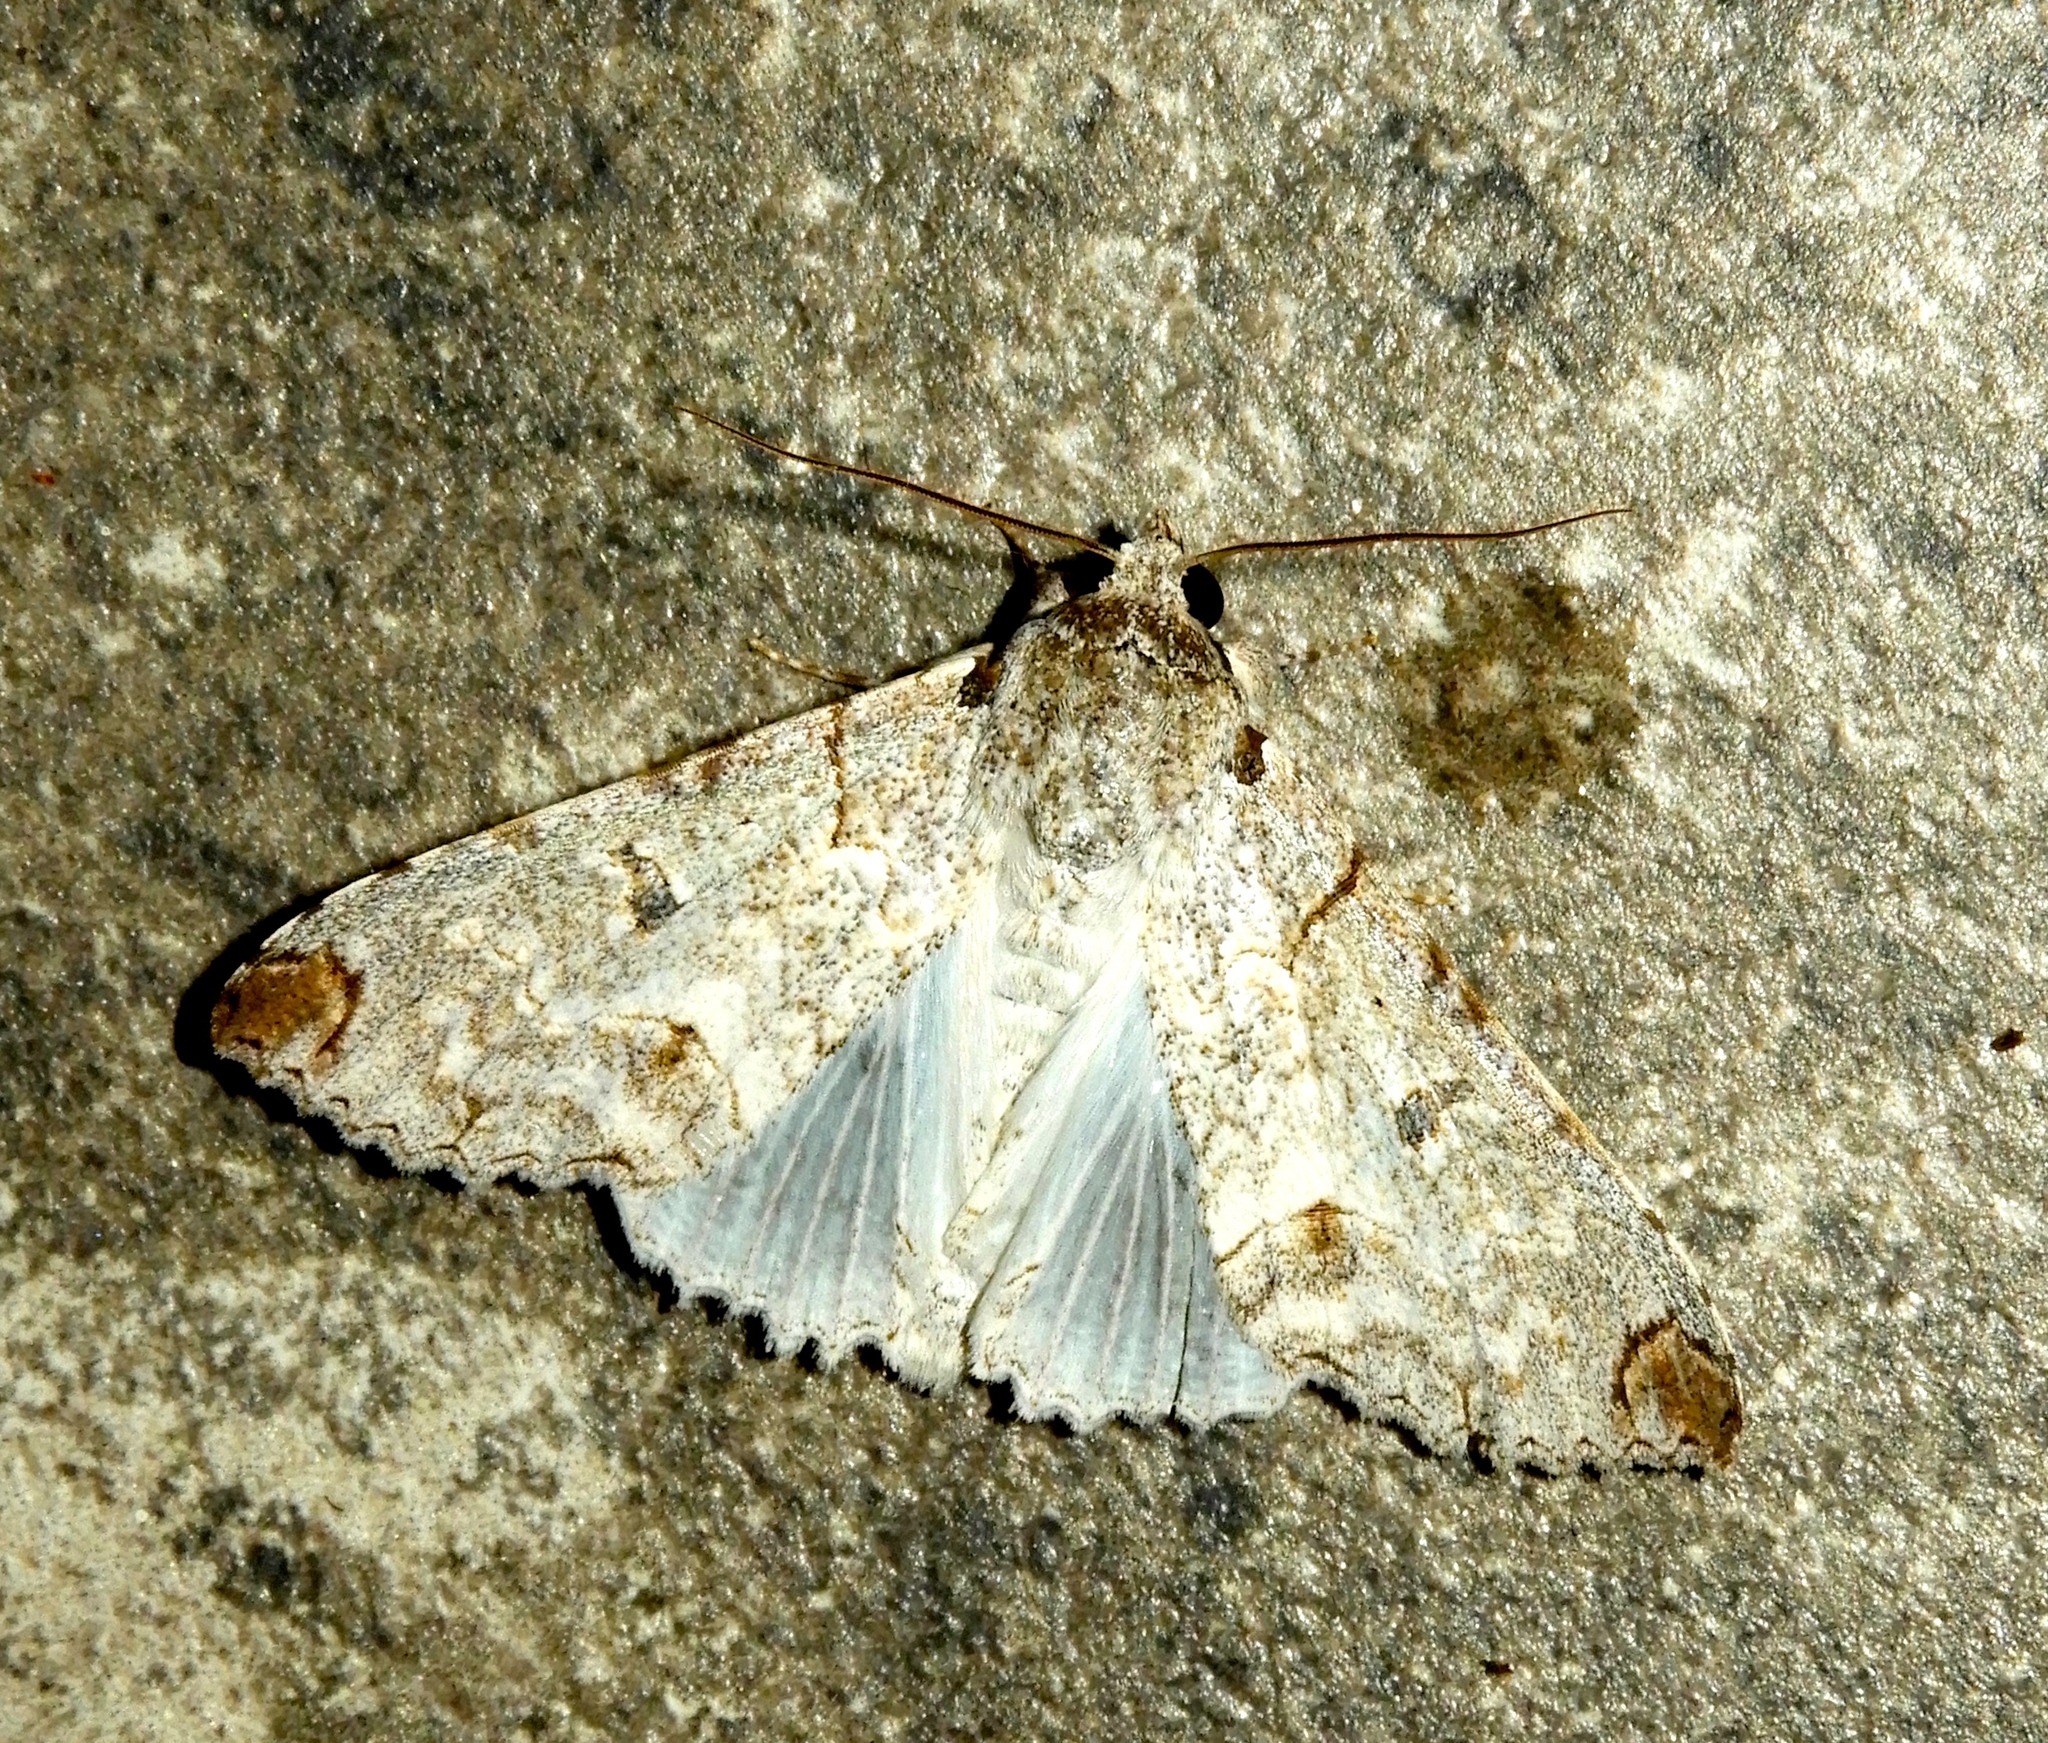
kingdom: Animalia
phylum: Arthropoda
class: Insecta
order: Lepidoptera
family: Erebidae
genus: Orodesma
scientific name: Orodesma
